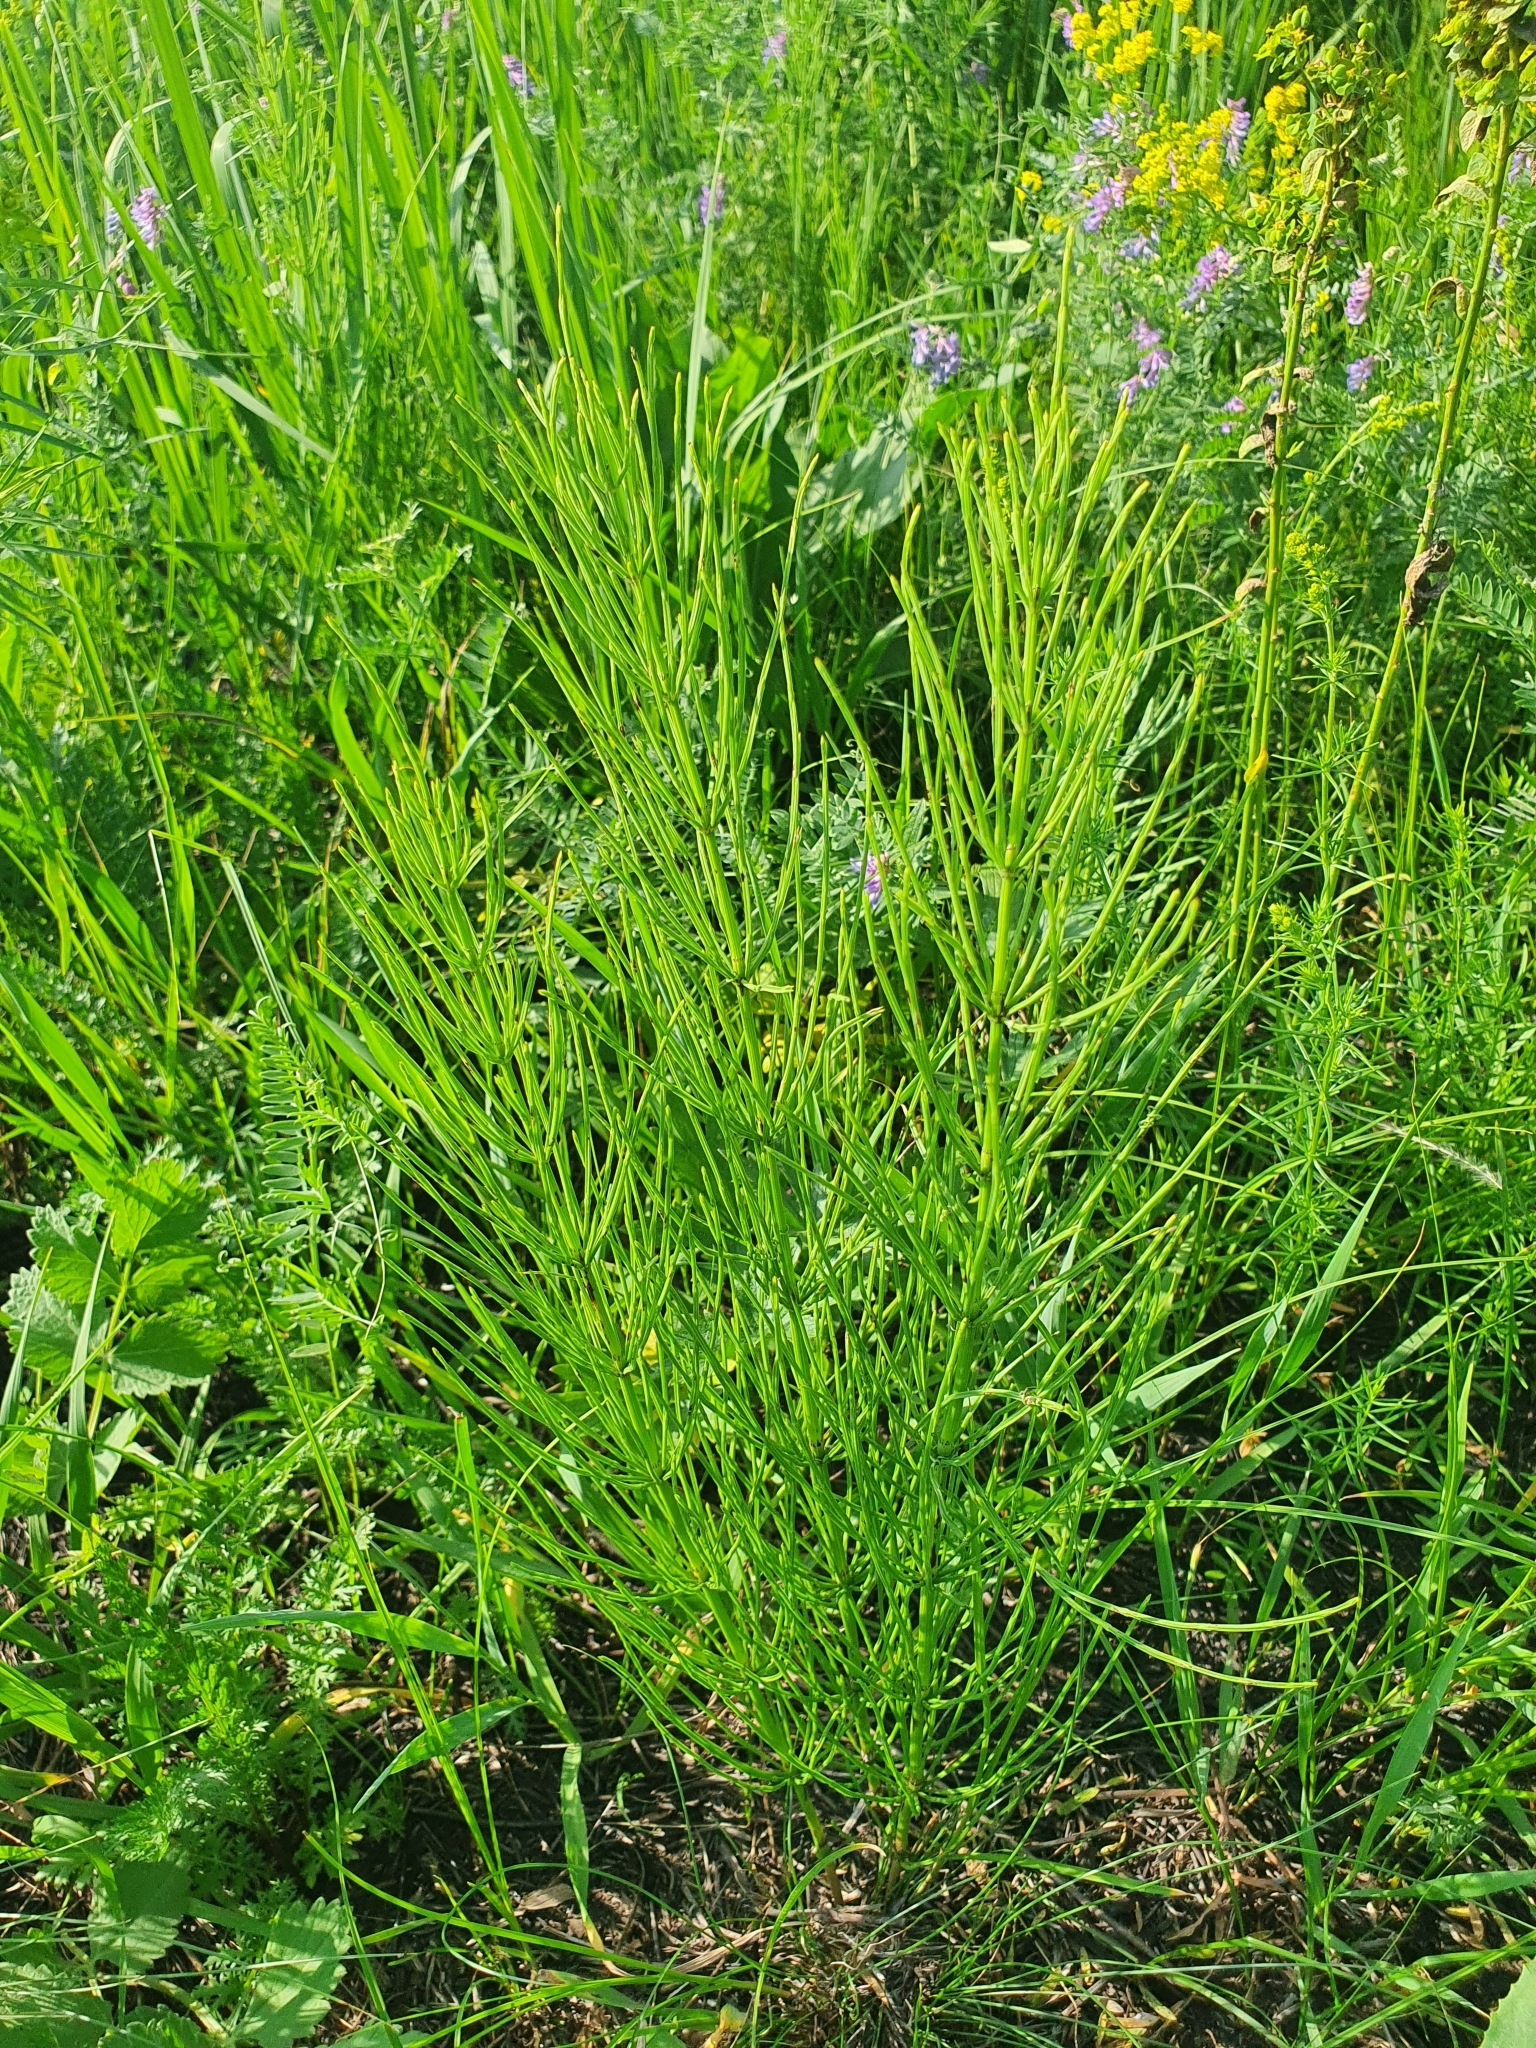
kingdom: Plantae
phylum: Tracheophyta
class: Polypodiopsida
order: Equisetales
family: Equisetaceae
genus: Equisetum
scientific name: Equisetum arvense
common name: Field horsetail
